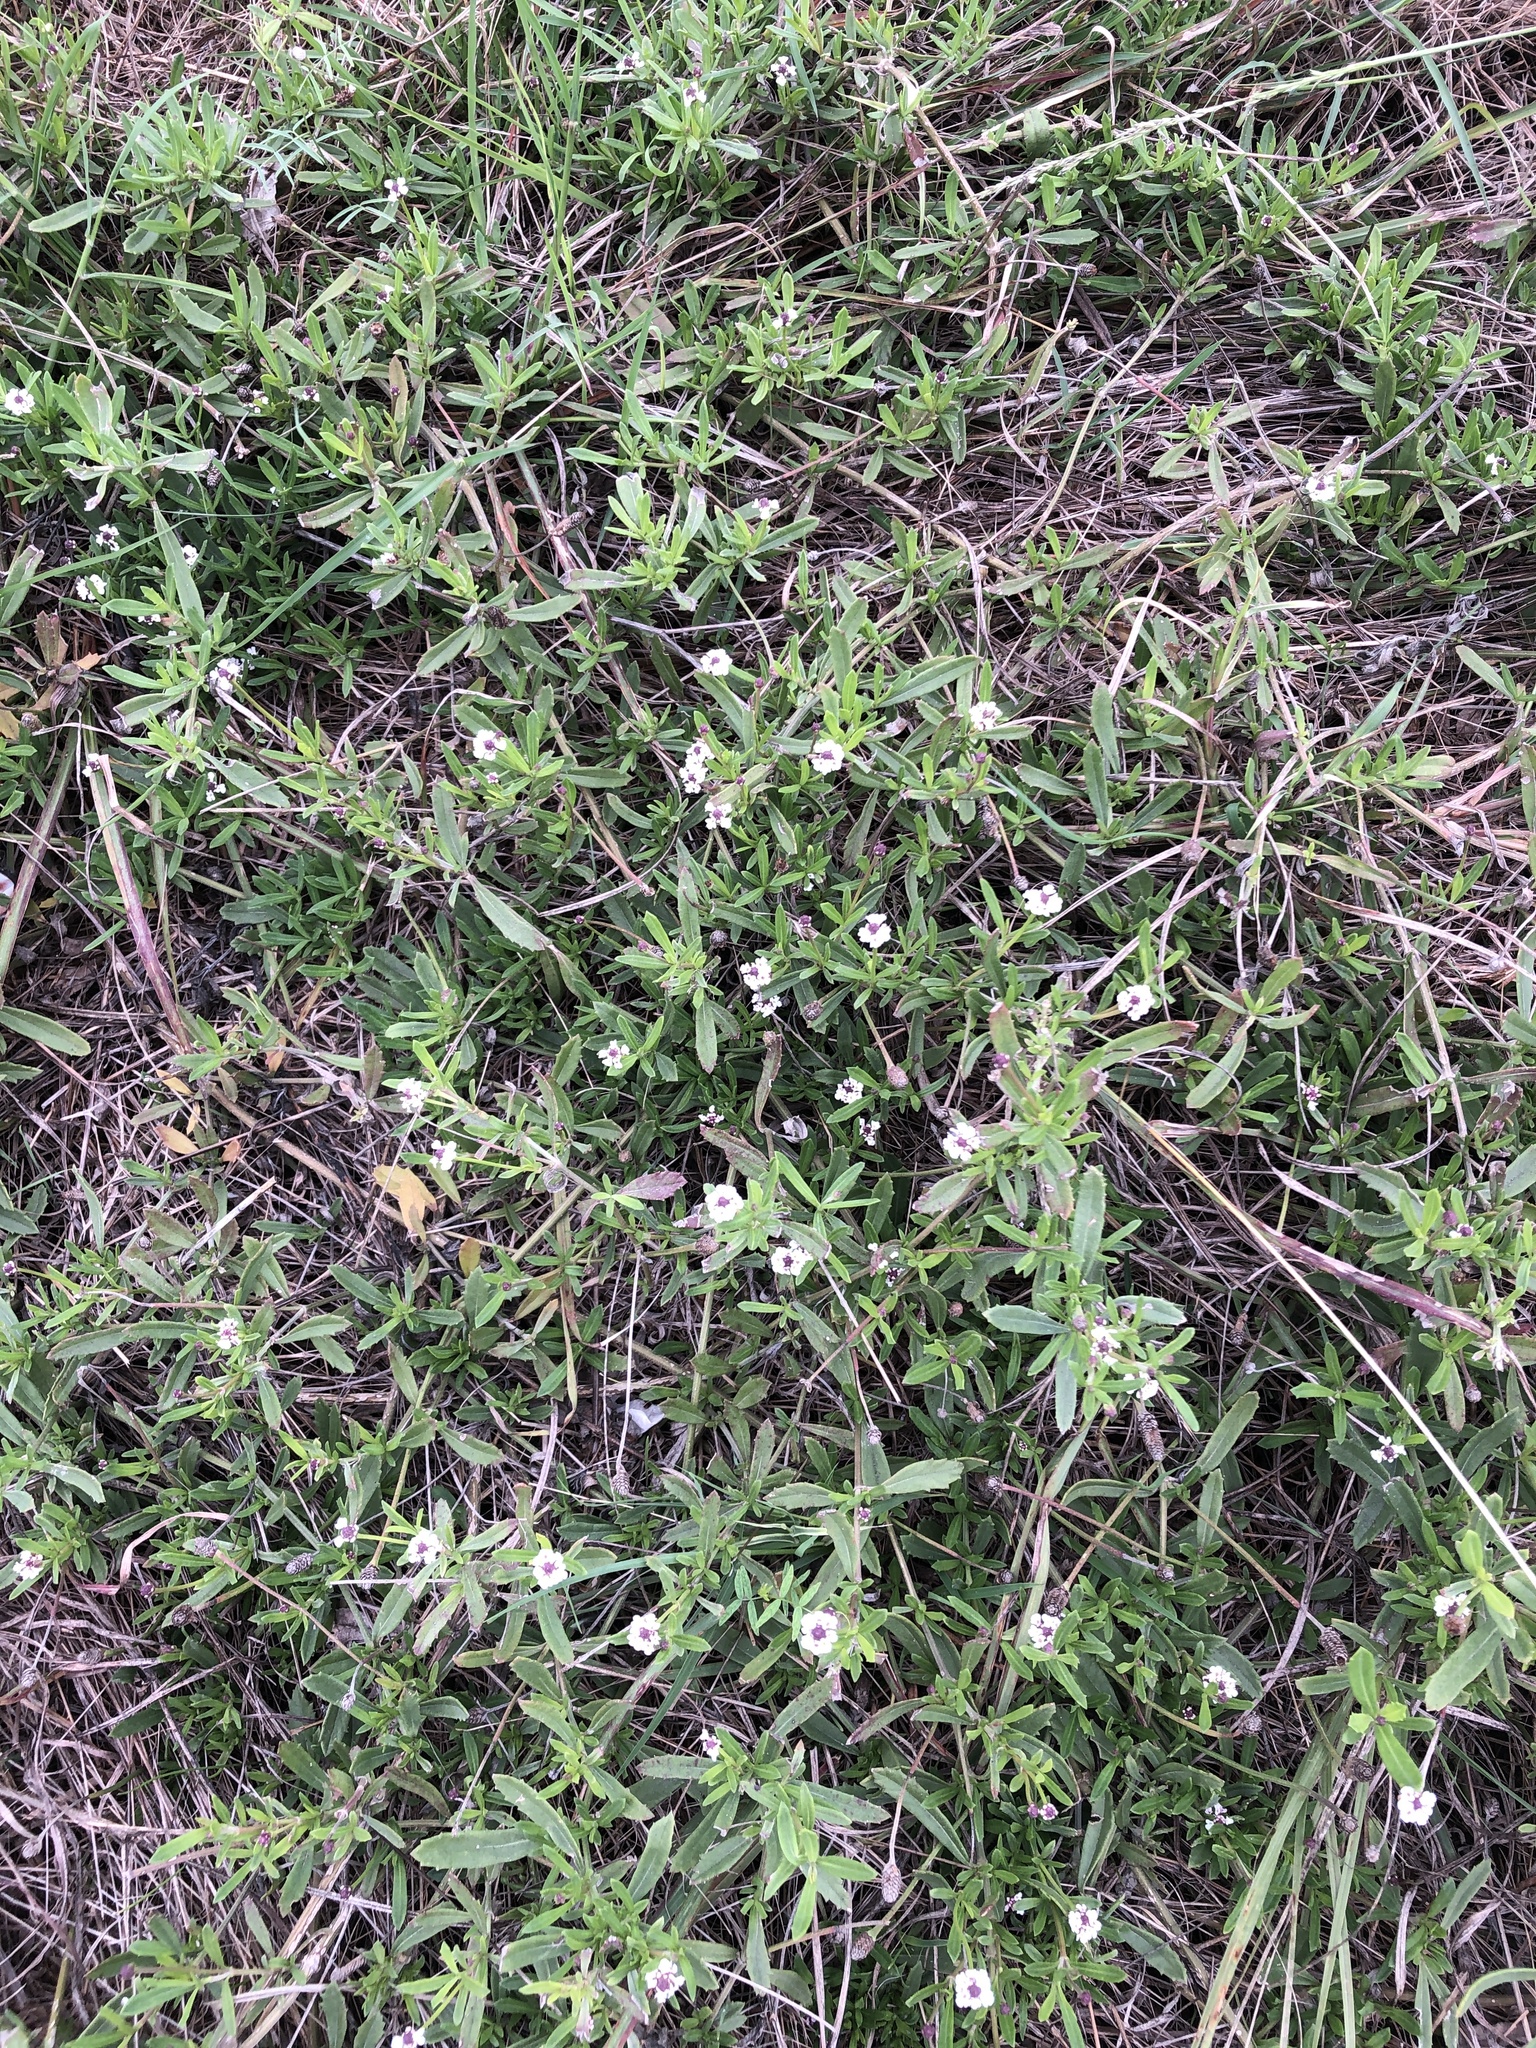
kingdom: Plantae
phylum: Tracheophyta
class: Magnoliopsida
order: Lamiales
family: Verbenaceae
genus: Phyla
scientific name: Phyla nodiflora
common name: Frogfruit
